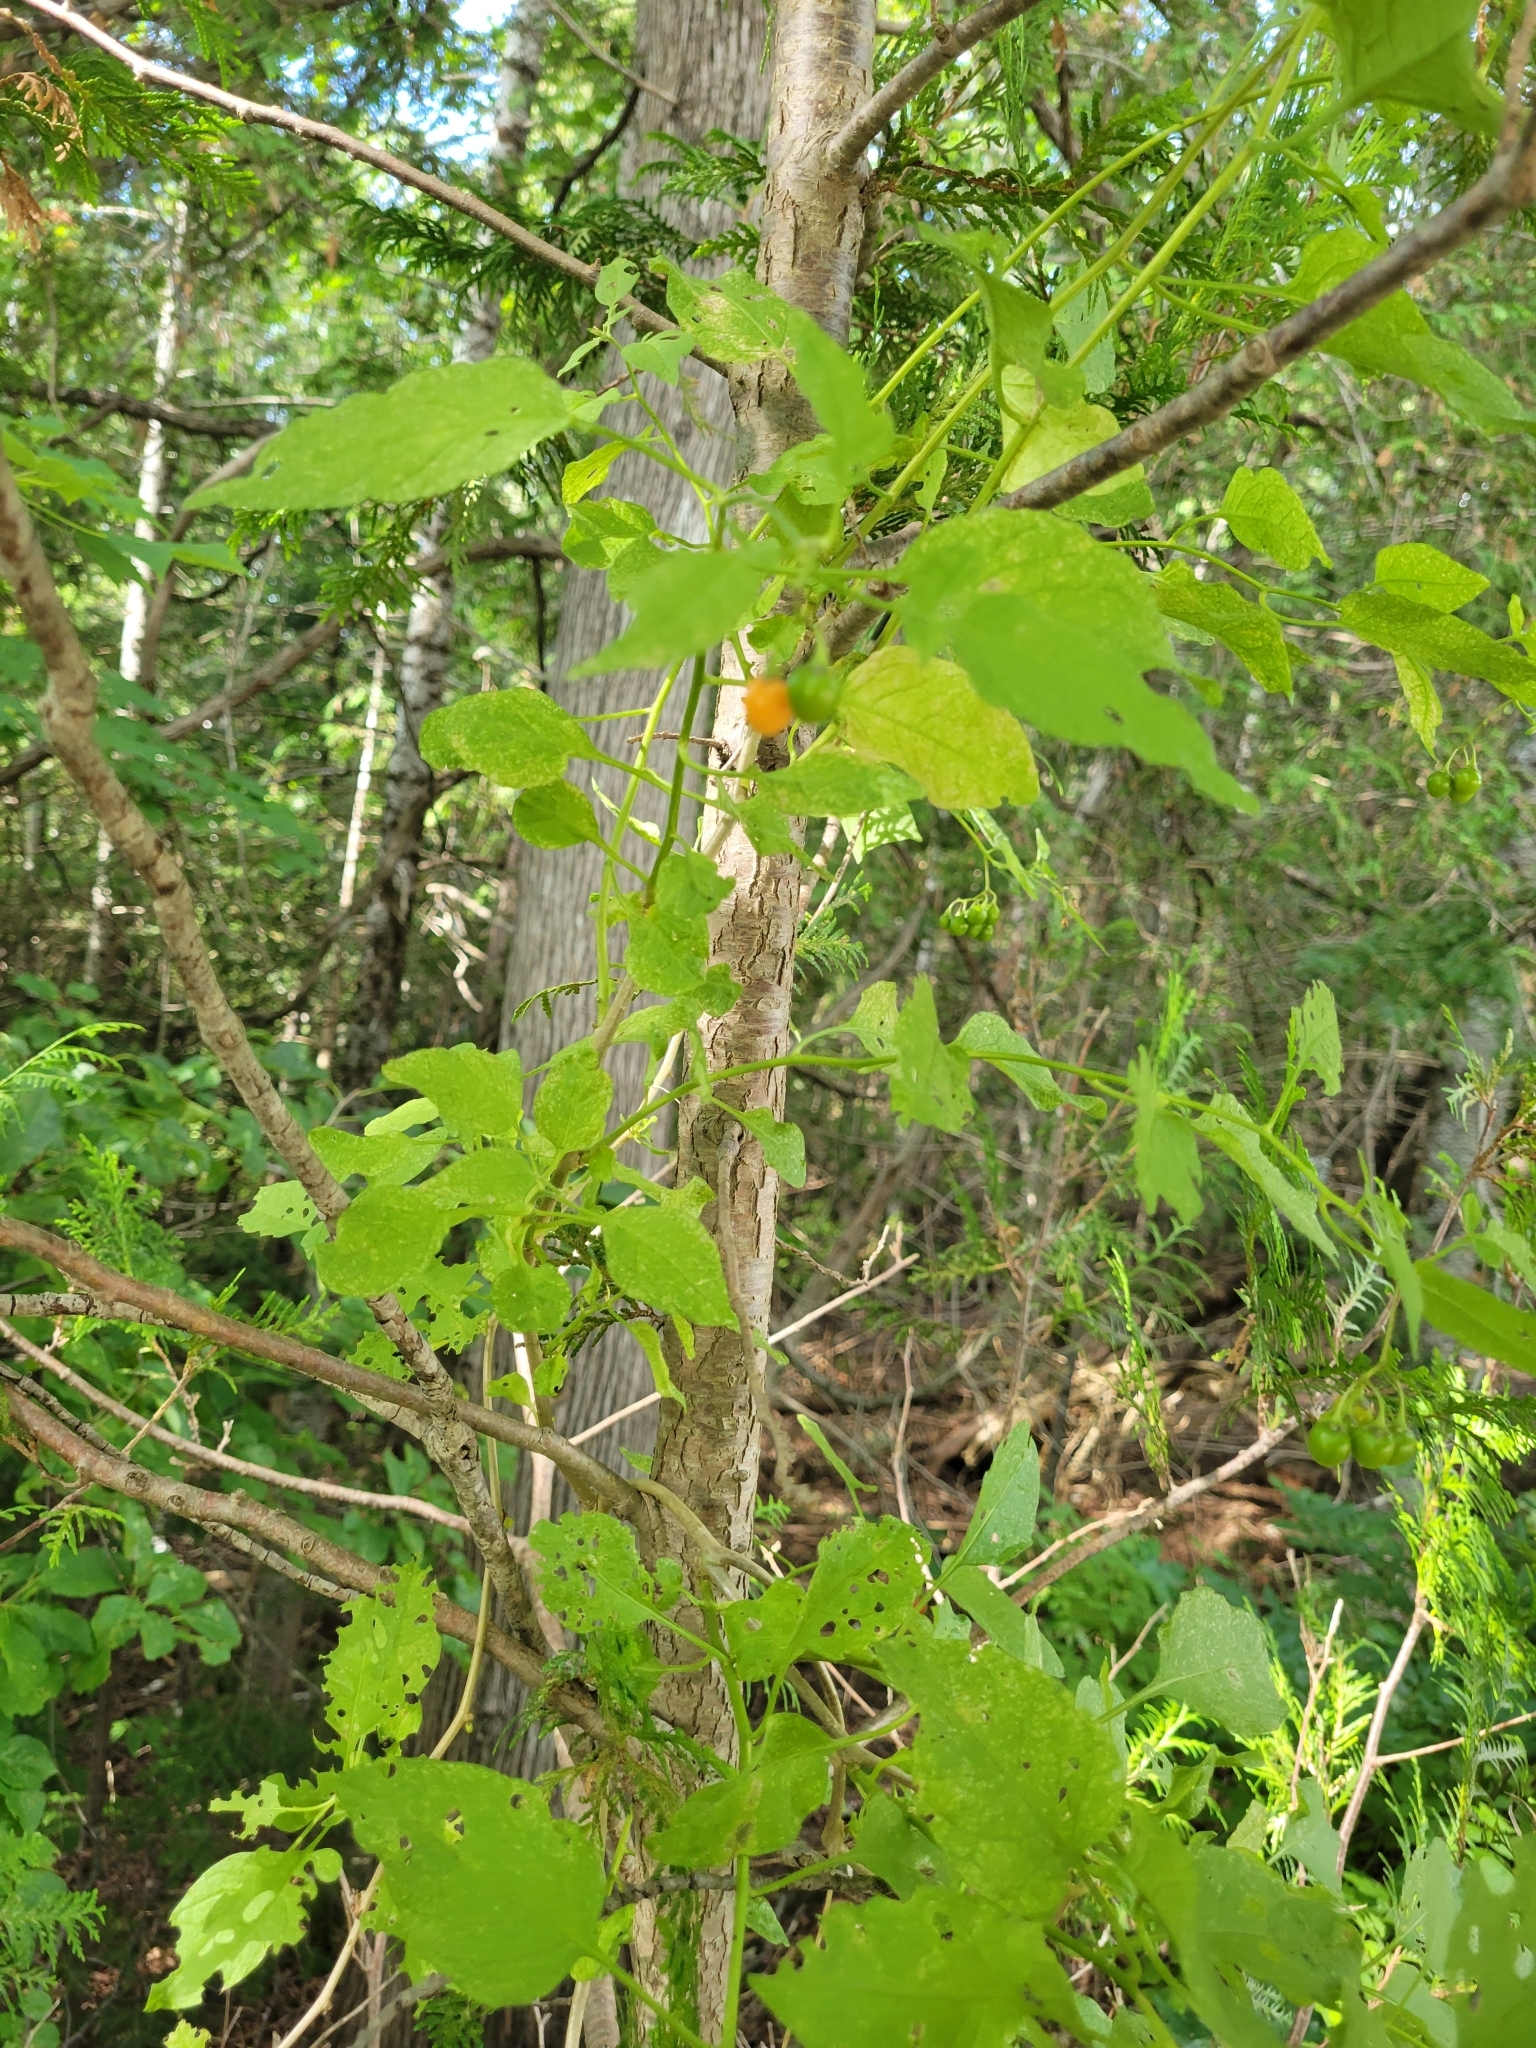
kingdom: Plantae
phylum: Tracheophyta
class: Magnoliopsida
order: Solanales
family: Solanaceae
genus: Solanum
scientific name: Solanum dulcamara
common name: Climbing nightshade
